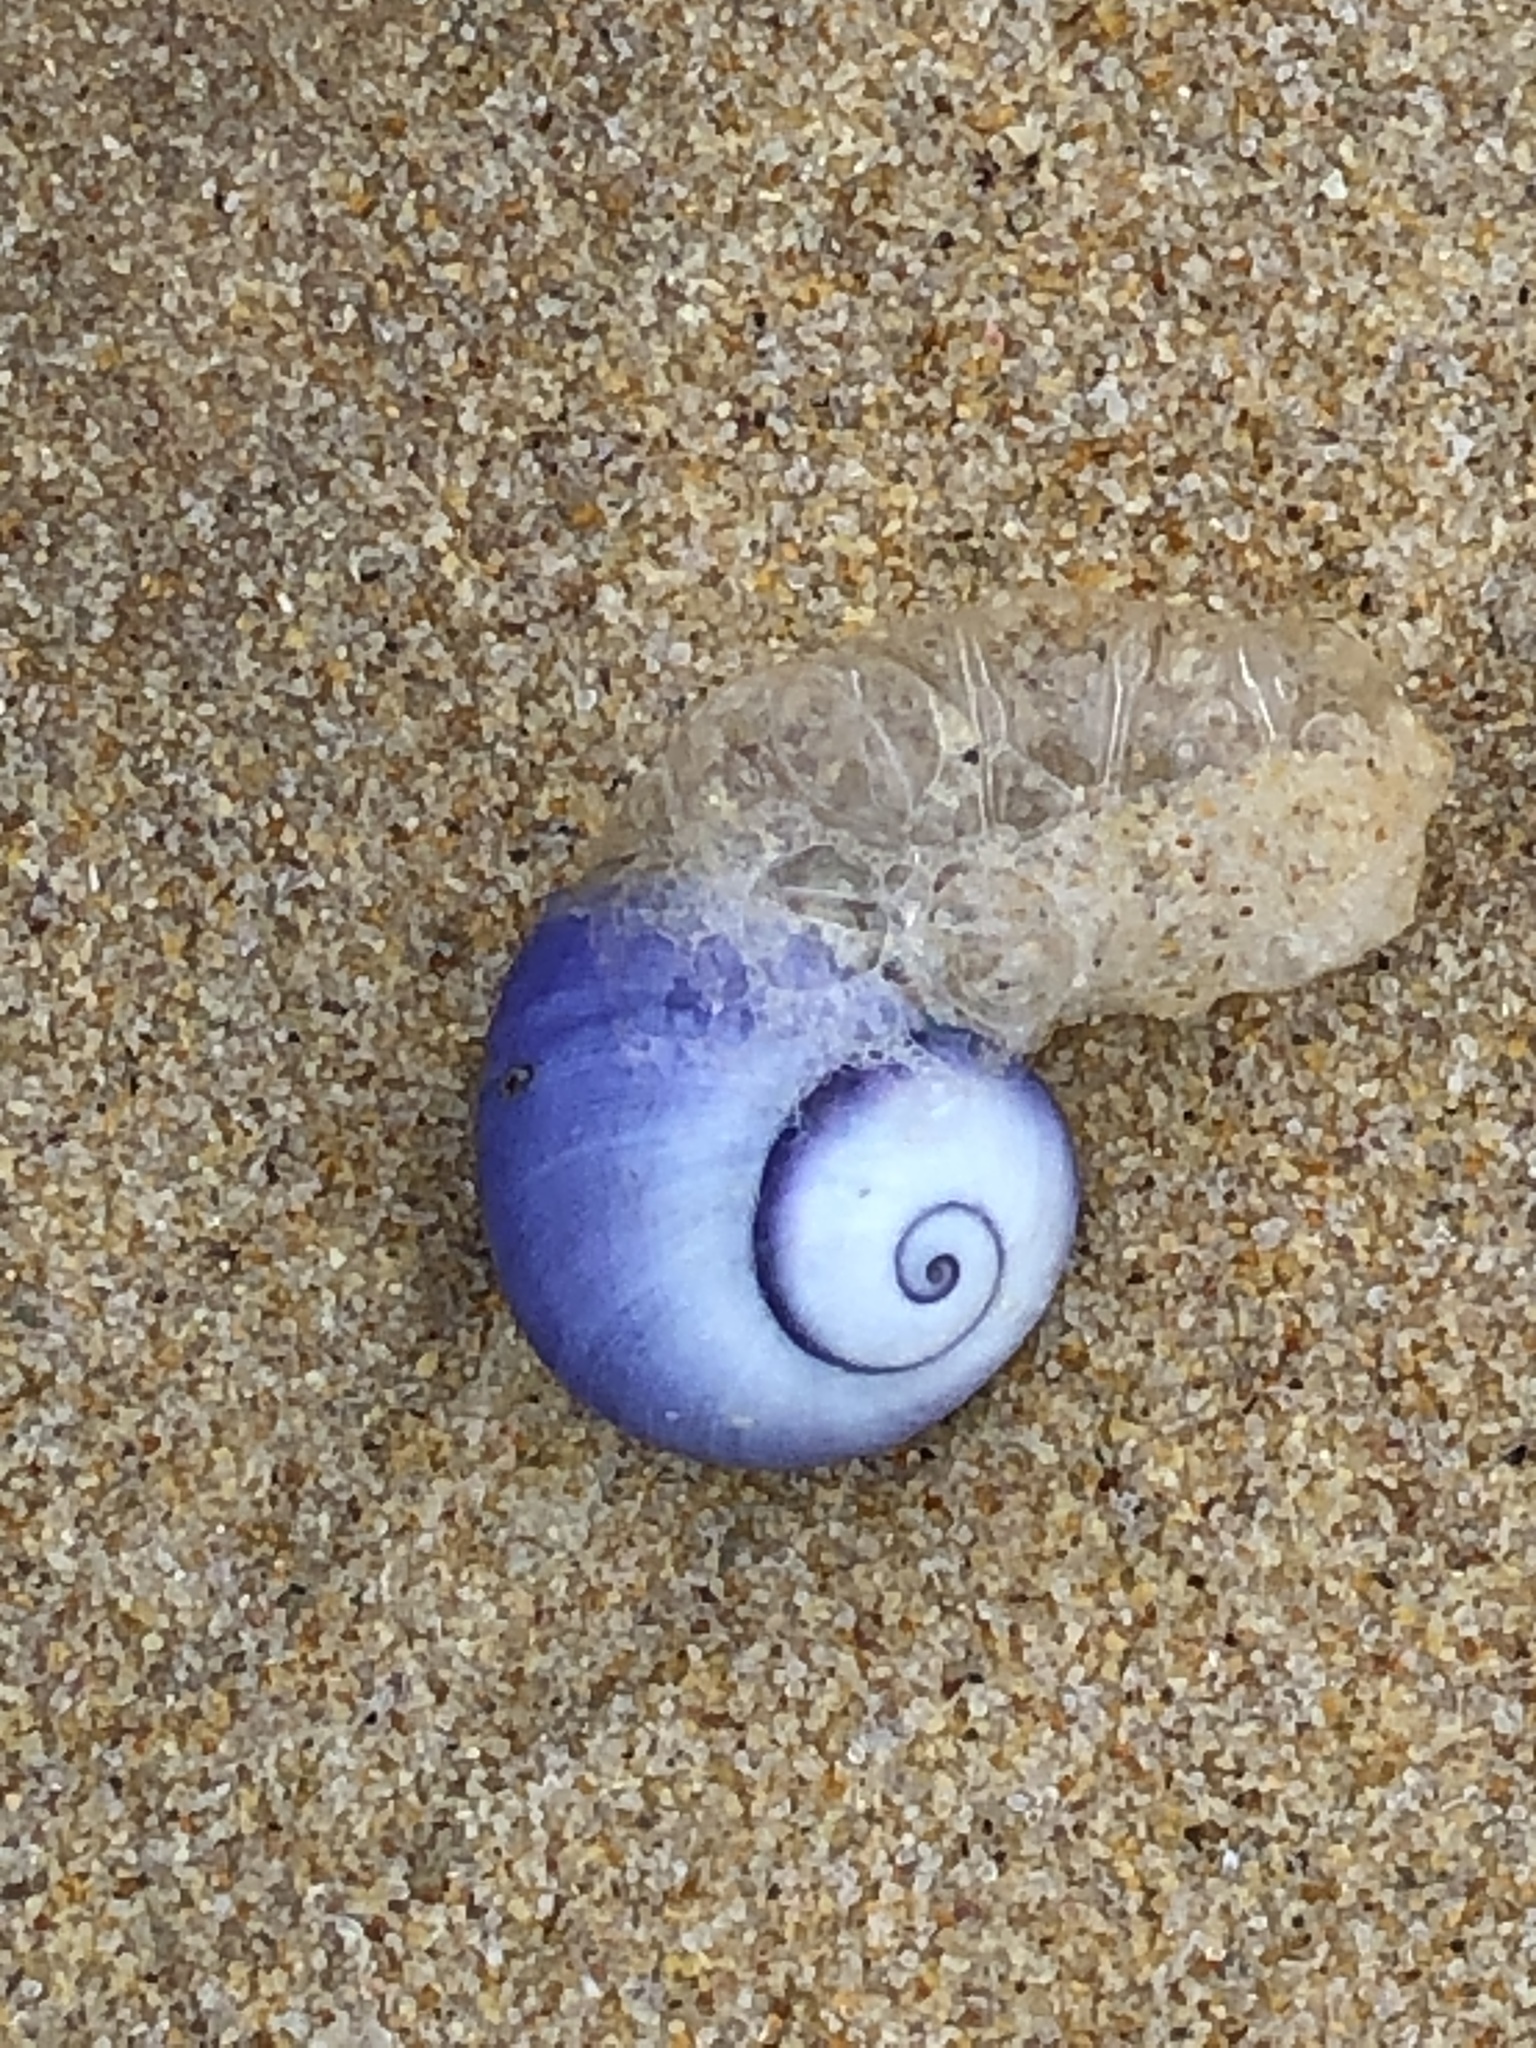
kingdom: Animalia
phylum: Mollusca
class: Gastropoda
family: Epitoniidae
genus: Janthina
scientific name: Janthina janthina
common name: Common janthina
